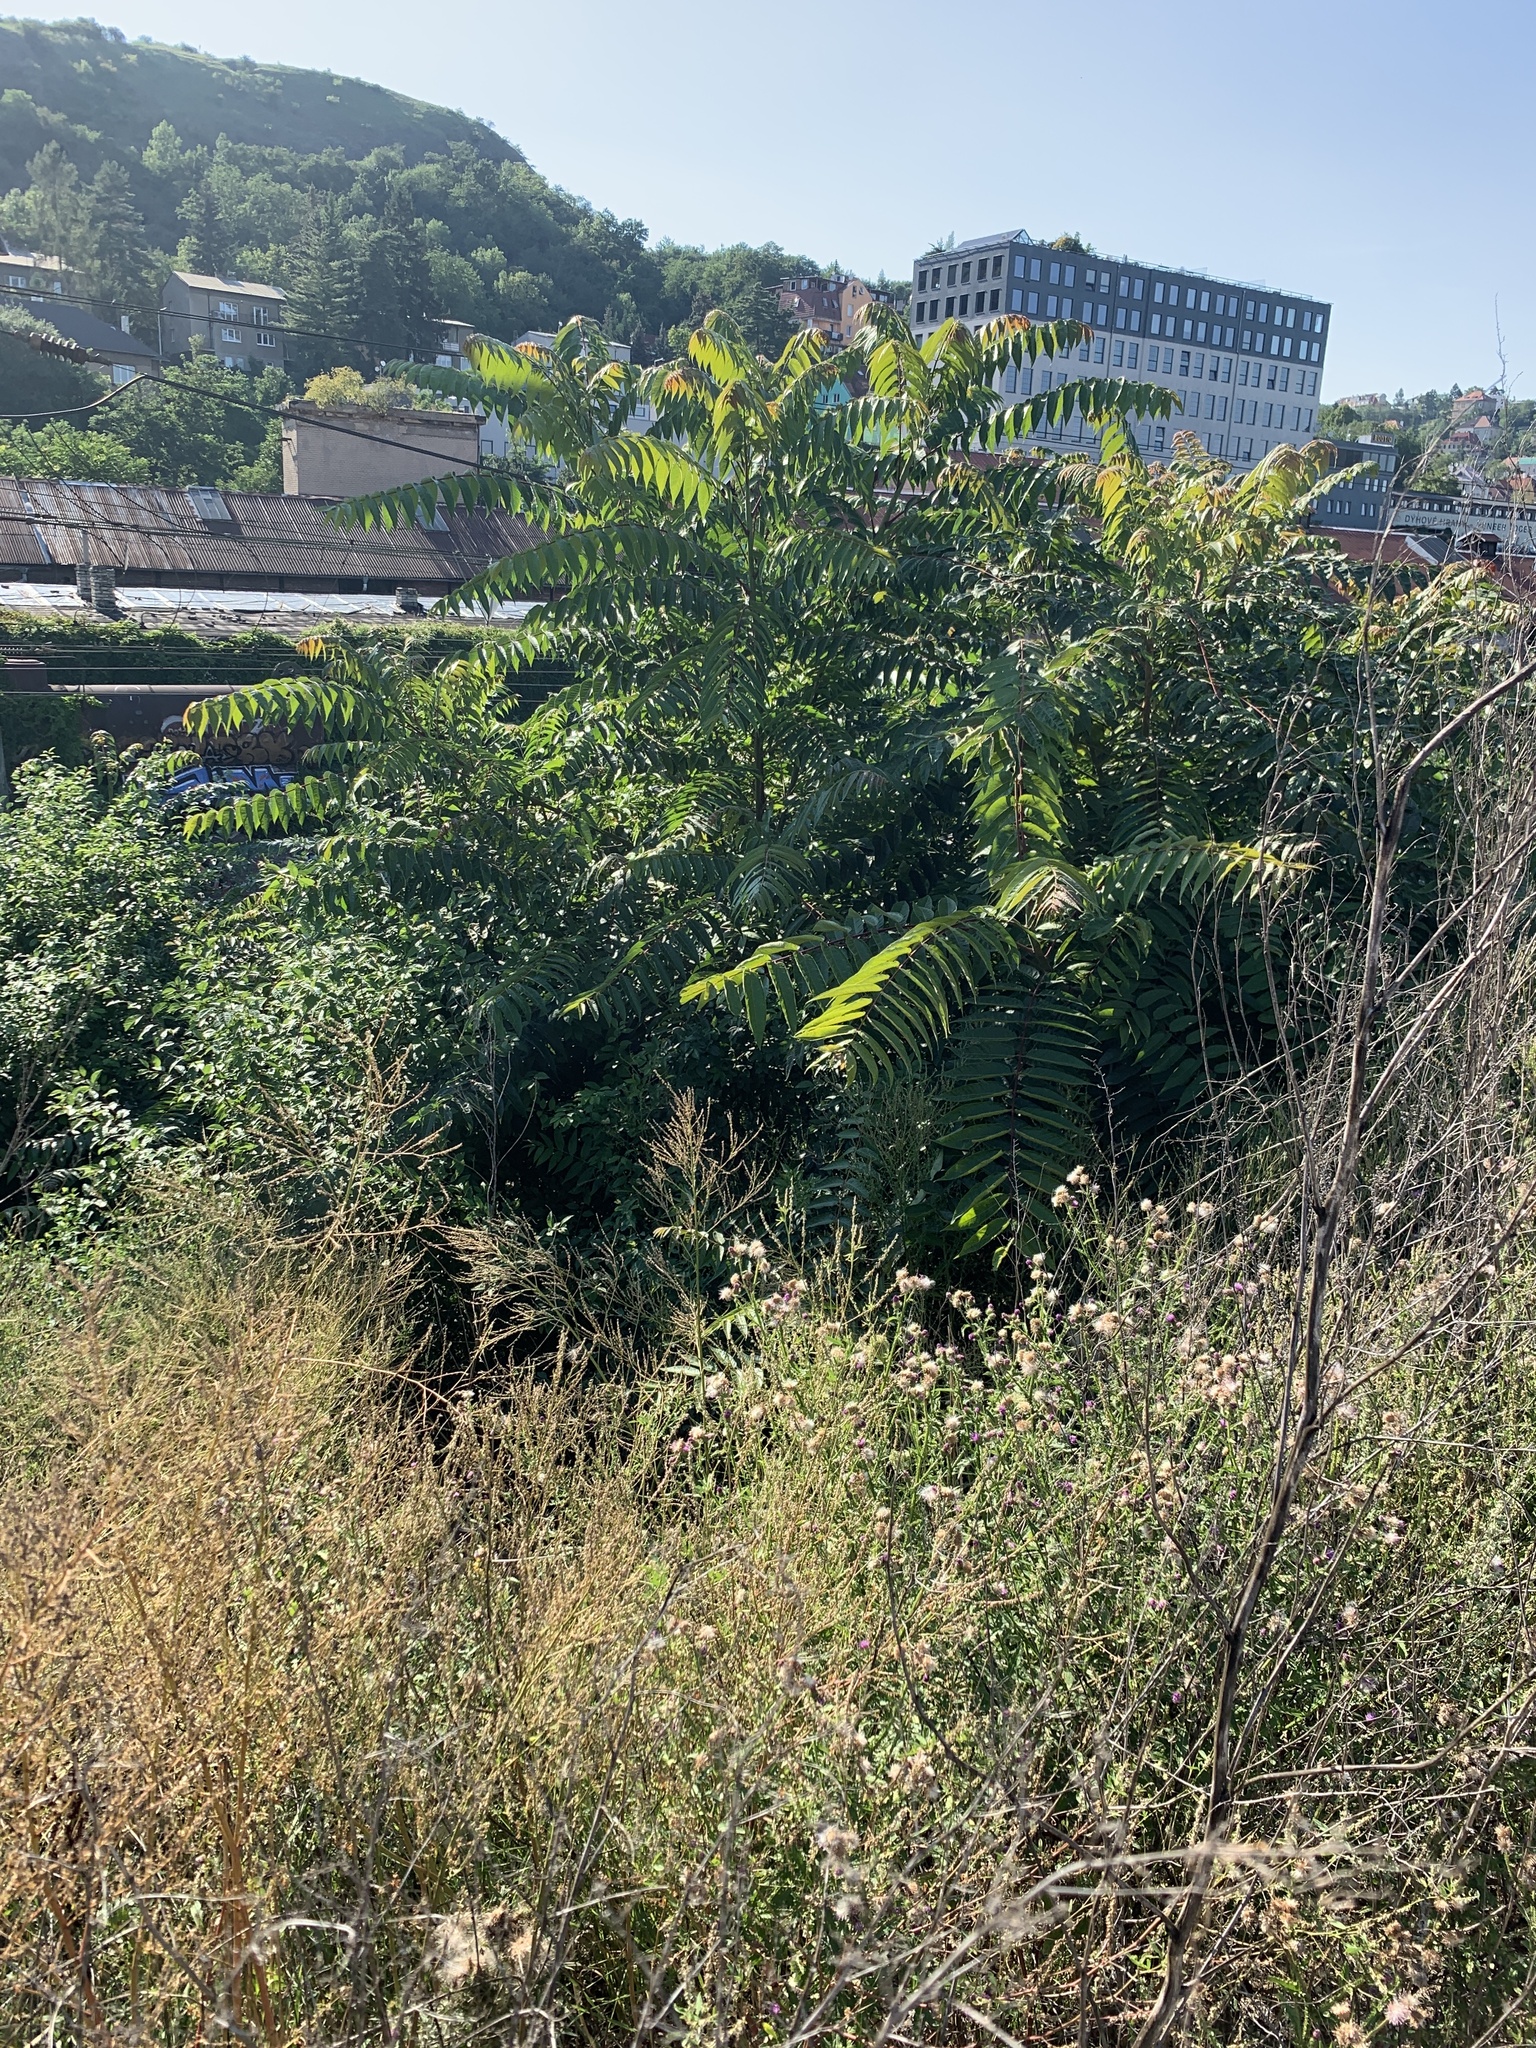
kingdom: Plantae
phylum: Tracheophyta
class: Magnoliopsida
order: Sapindales
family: Simaroubaceae
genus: Ailanthus
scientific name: Ailanthus altissima
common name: Tree-of-heaven
